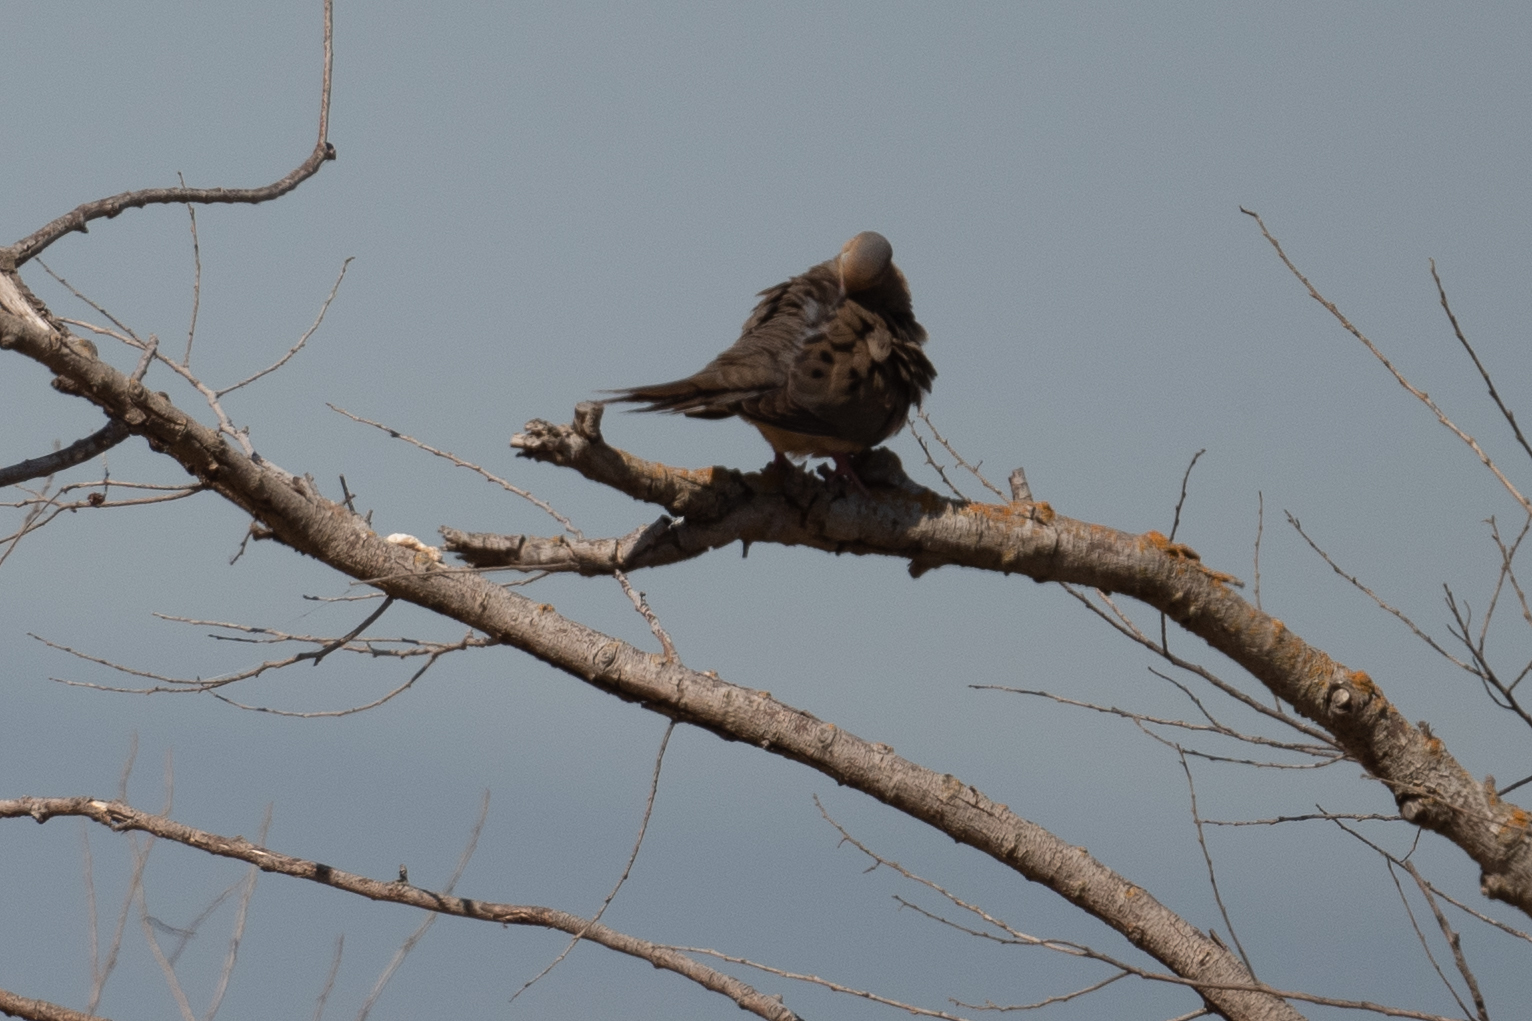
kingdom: Animalia
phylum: Chordata
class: Aves
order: Columbiformes
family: Columbidae
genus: Zenaida
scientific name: Zenaida macroura
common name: Mourning dove
